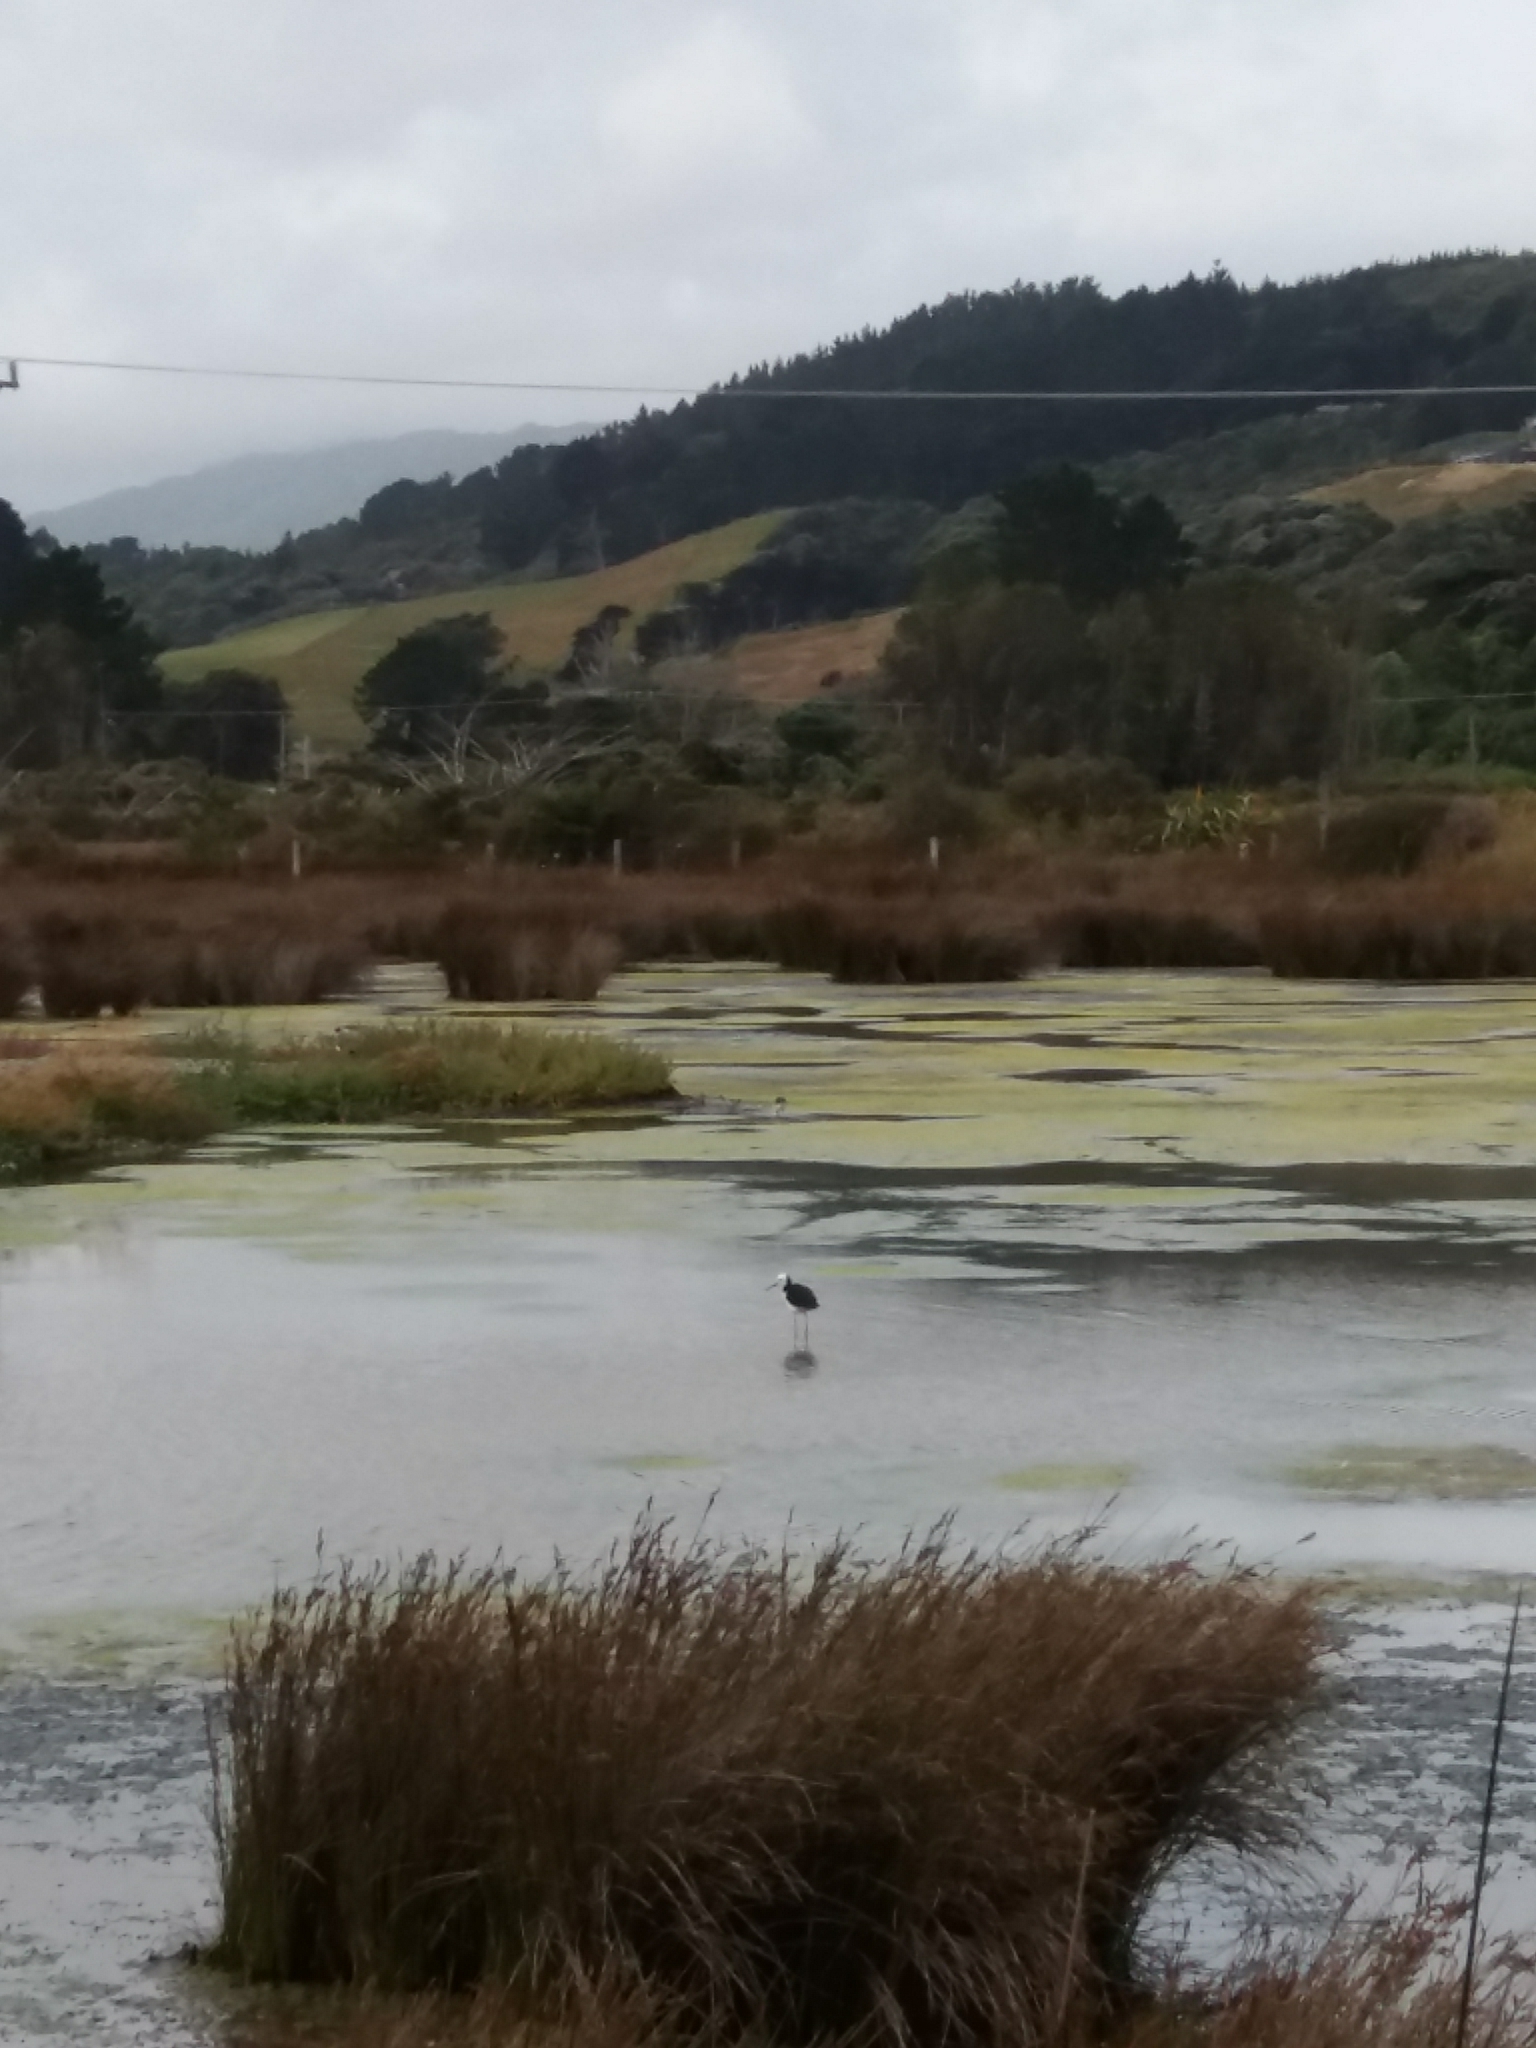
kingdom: Animalia
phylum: Chordata
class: Aves
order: Charadriiformes
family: Recurvirostridae
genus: Himantopus
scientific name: Himantopus leucocephalus
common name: White-headed stilt
